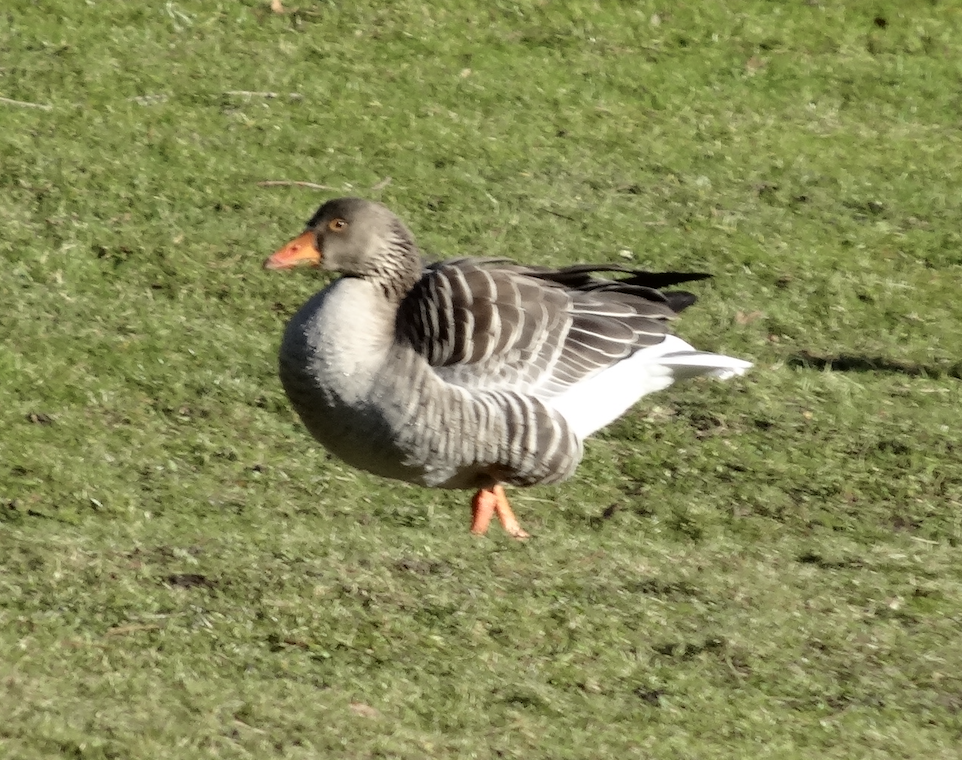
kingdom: Animalia
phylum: Chordata
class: Aves
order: Anseriformes
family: Anatidae
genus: Anser
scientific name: Anser anser
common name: Greylag goose
